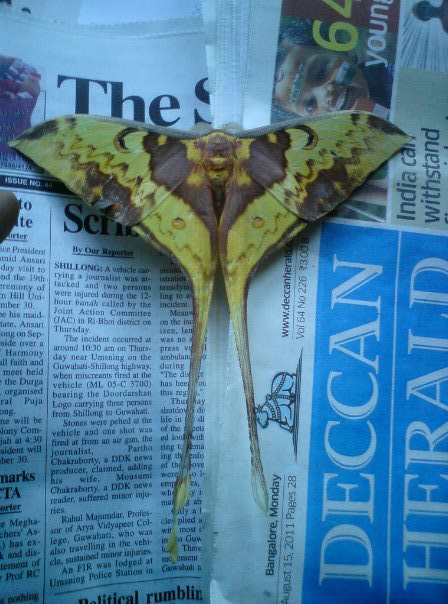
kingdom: Animalia
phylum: Arthropoda
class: Insecta
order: Lepidoptera
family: Saturniidae
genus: Actias
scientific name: Actias maenas
